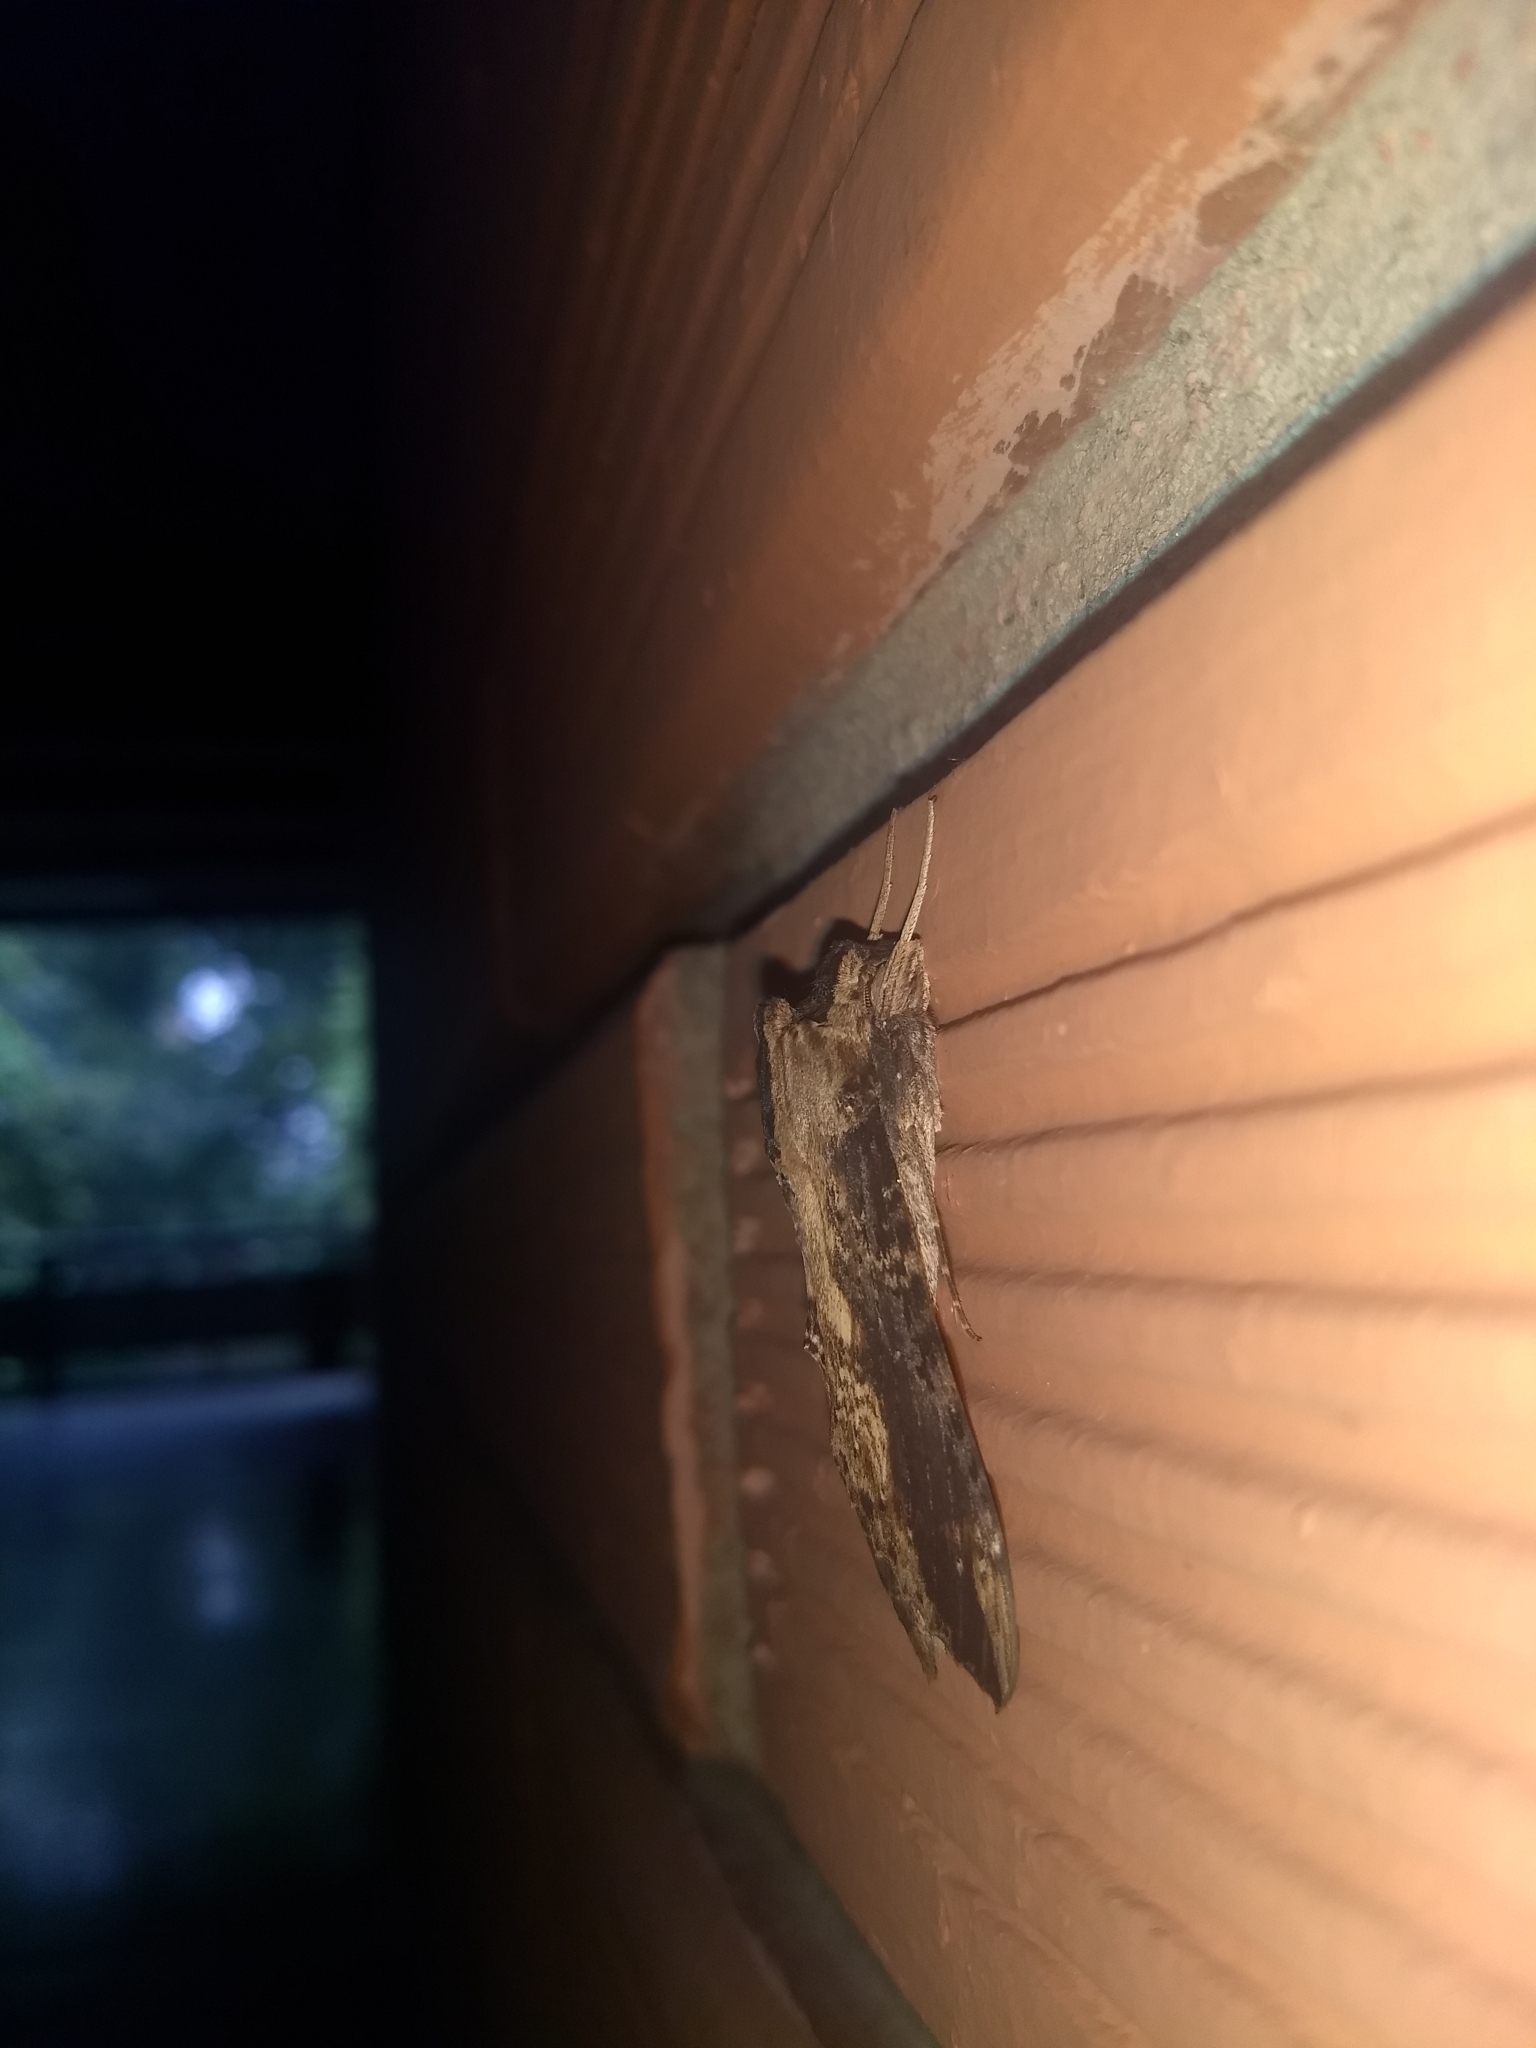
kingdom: Animalia
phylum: Arthropoda
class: Insecta
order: Lepidoptera
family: Sphingidae
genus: Erinnyis
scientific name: Erinnyis alope
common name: Alope sphinx
